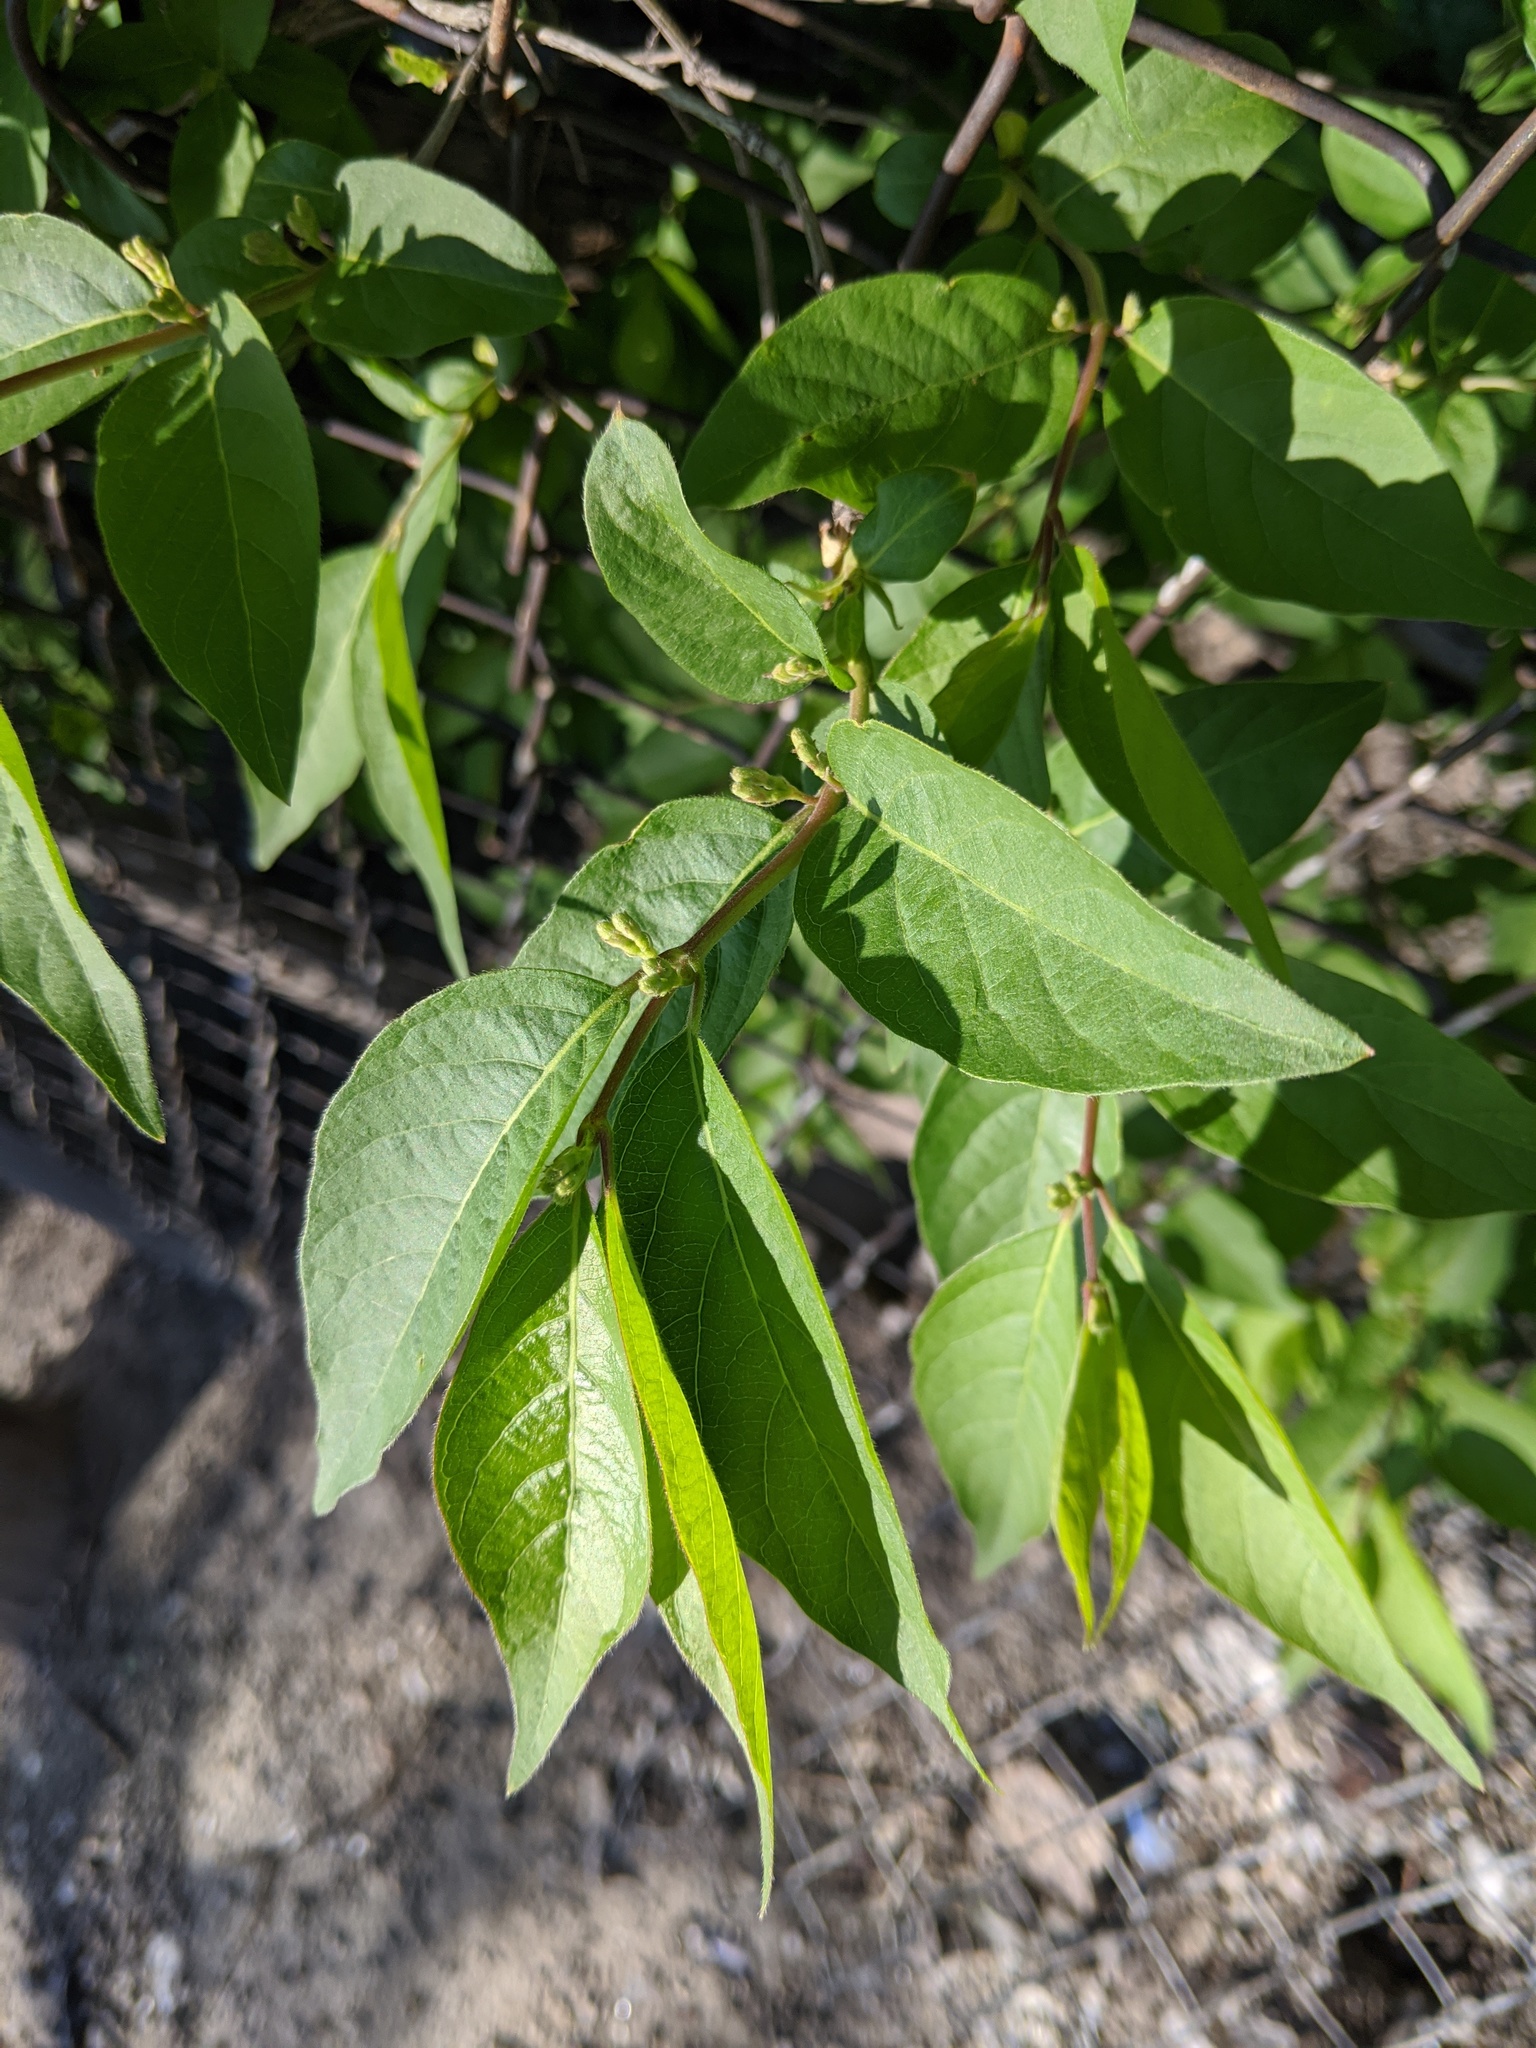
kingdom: Plantae
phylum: Tracheophyta
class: Magnoliopsida
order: Dipsacales
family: Caprifoliaceae
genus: Lonicera
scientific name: Lonicera maackii
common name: Amur honeysuckle
